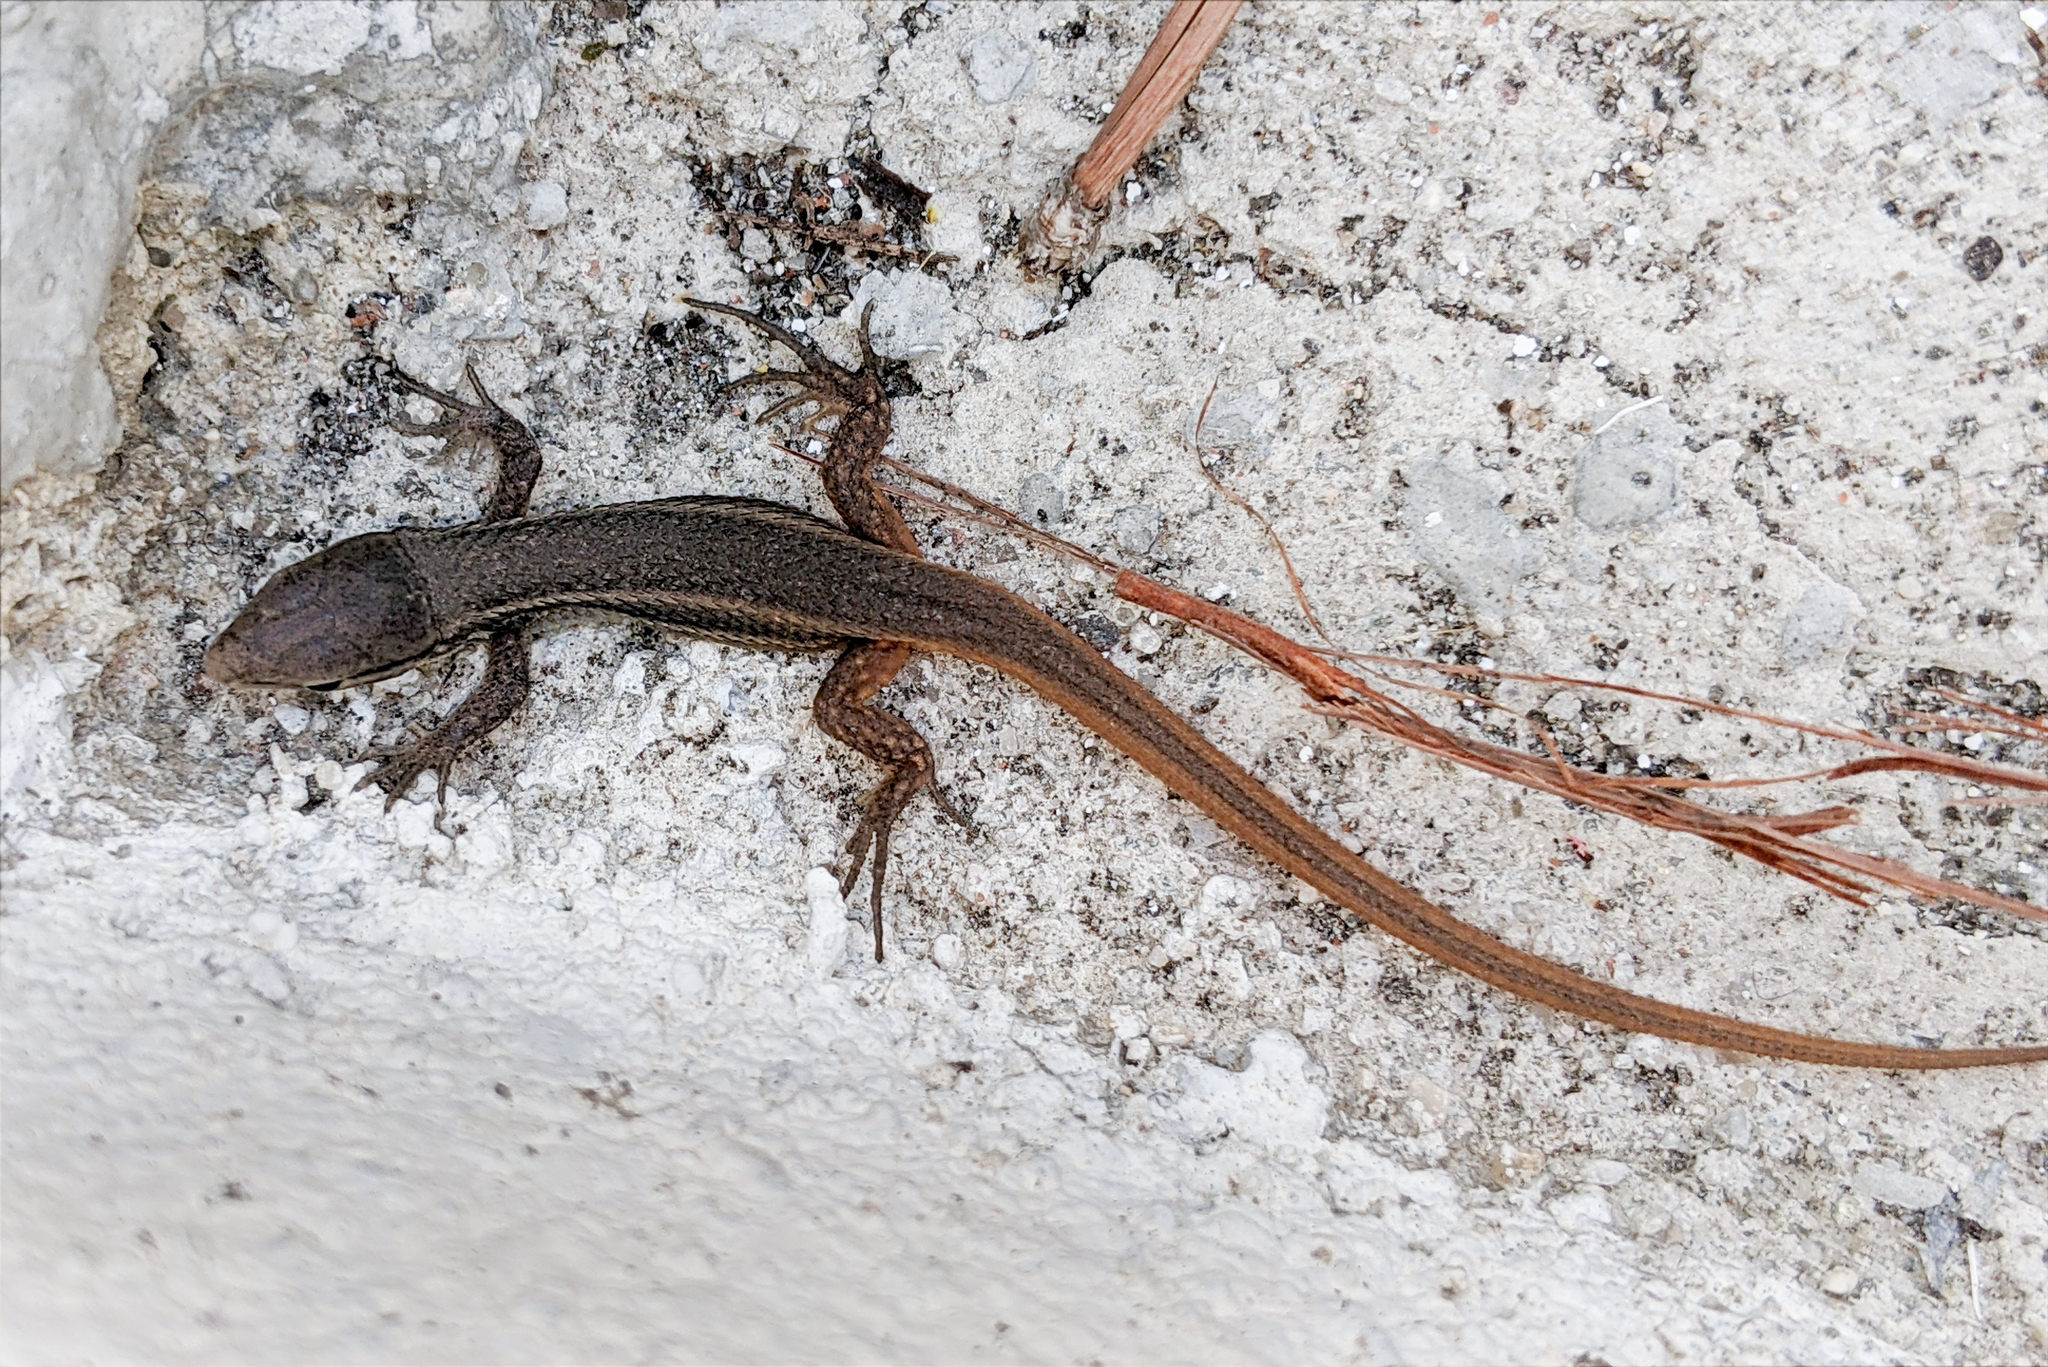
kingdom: Animalia
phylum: Chordata
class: Squamata
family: Lacertidae
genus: Psammodromus
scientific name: Psammodromus algirus
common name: Algerian psammodromus
